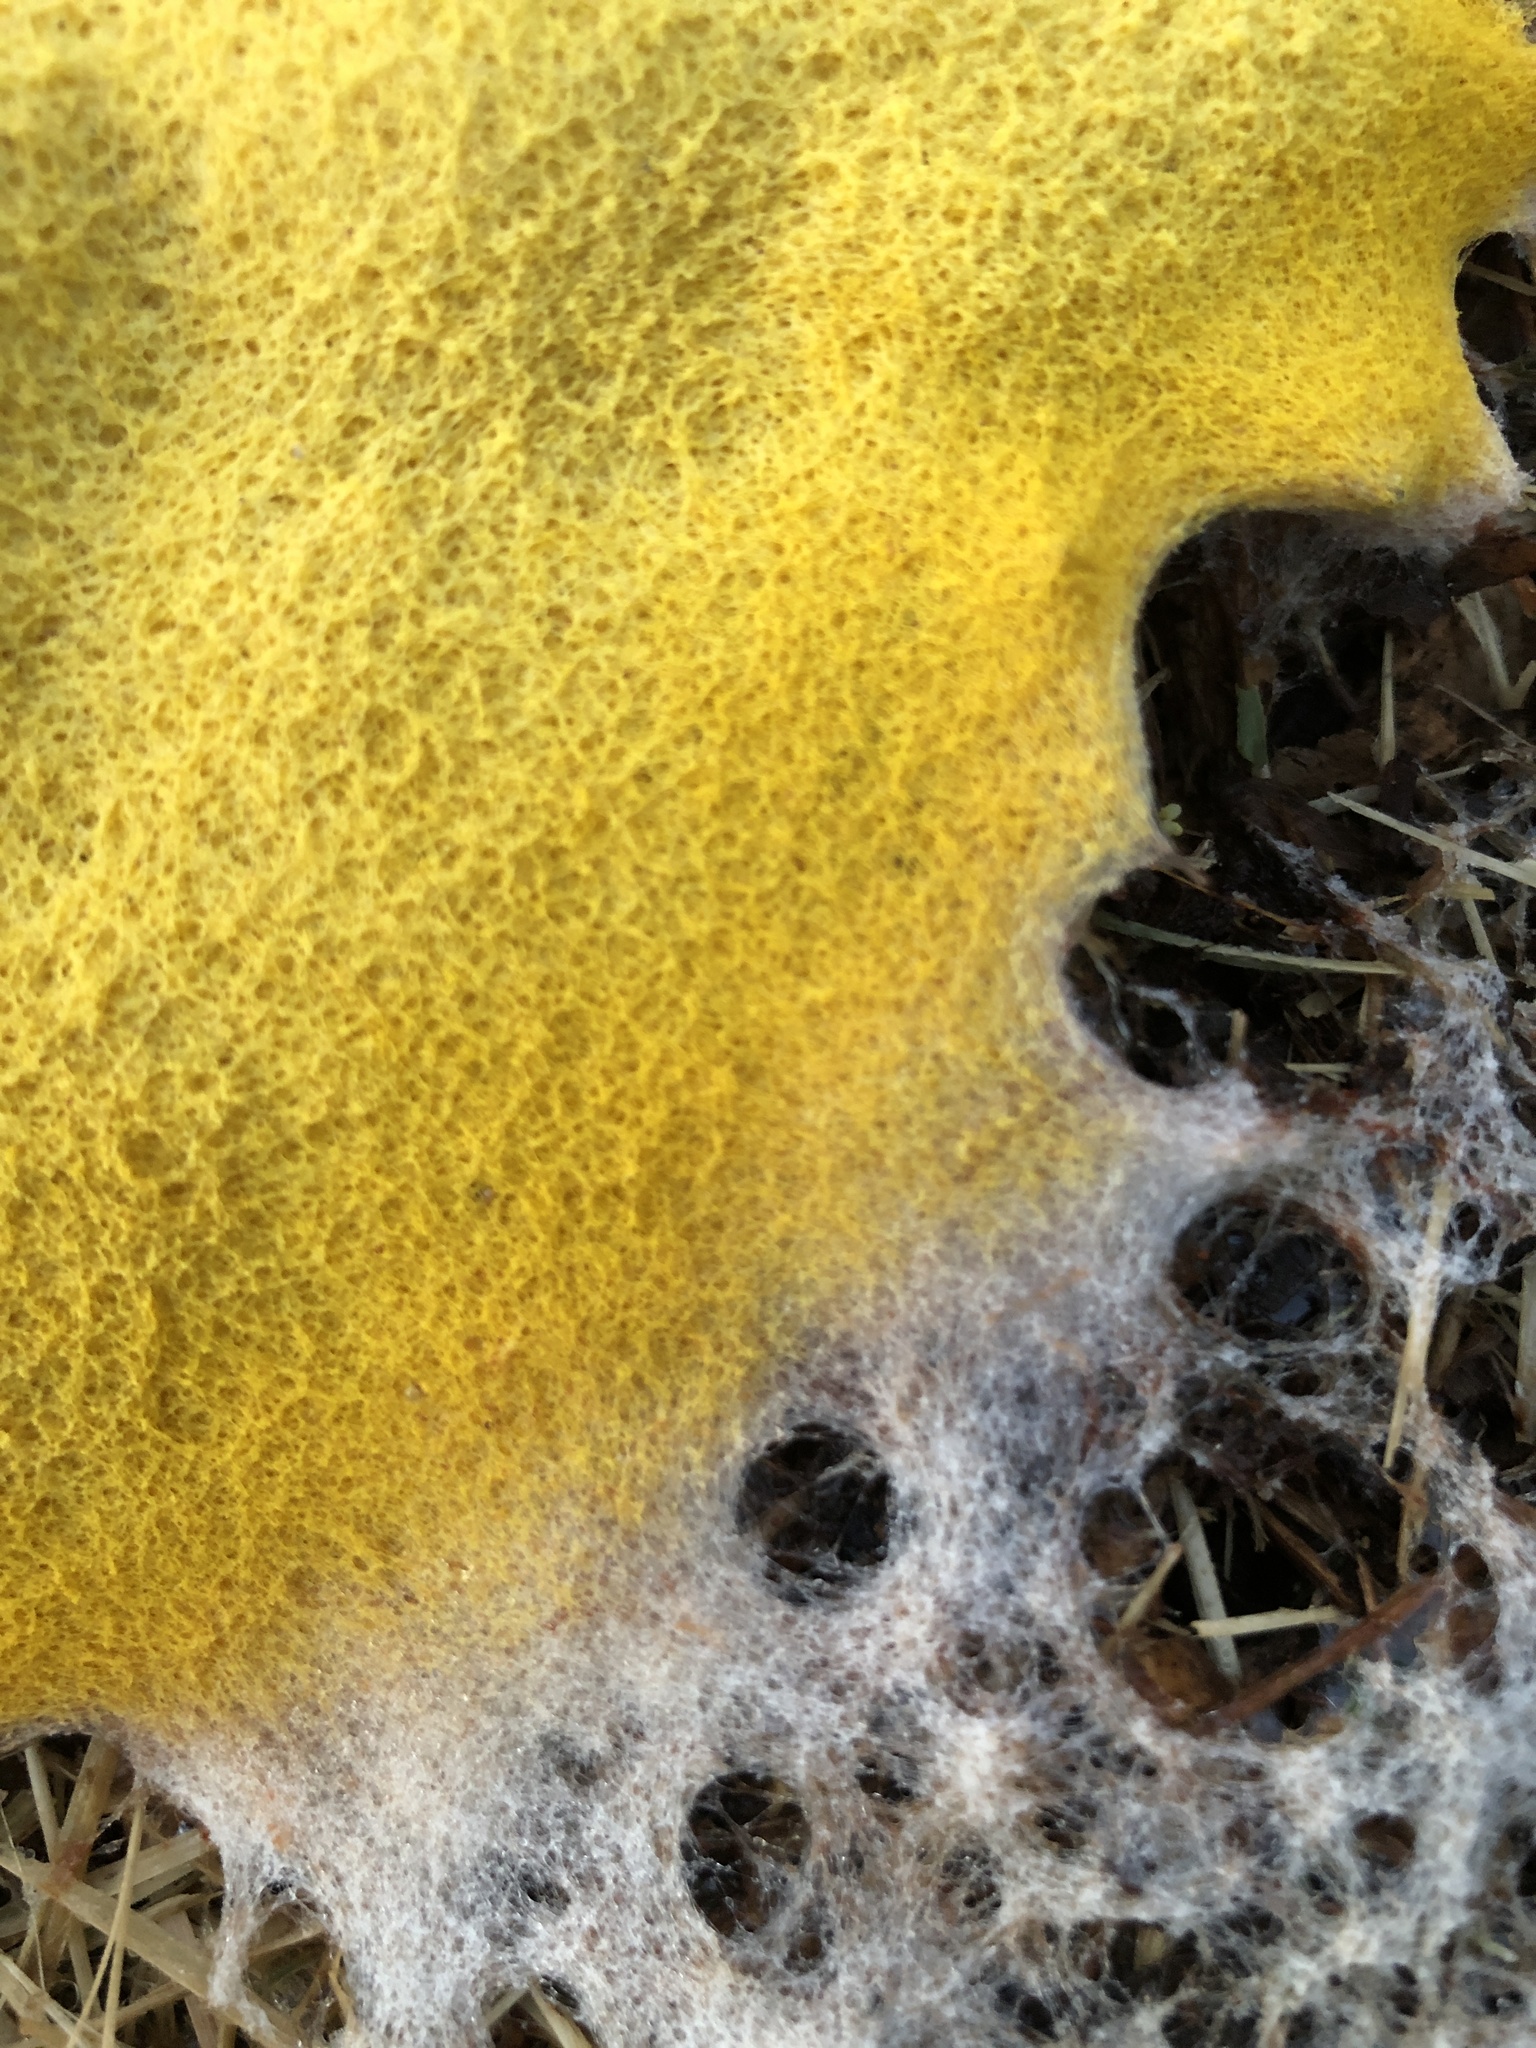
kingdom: Protozoa
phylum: Mycetozoa
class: Myxomycetes
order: Physarales
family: Physaraceae
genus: Fuligo
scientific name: Fuligo septica
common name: Dog vomit slime mold
